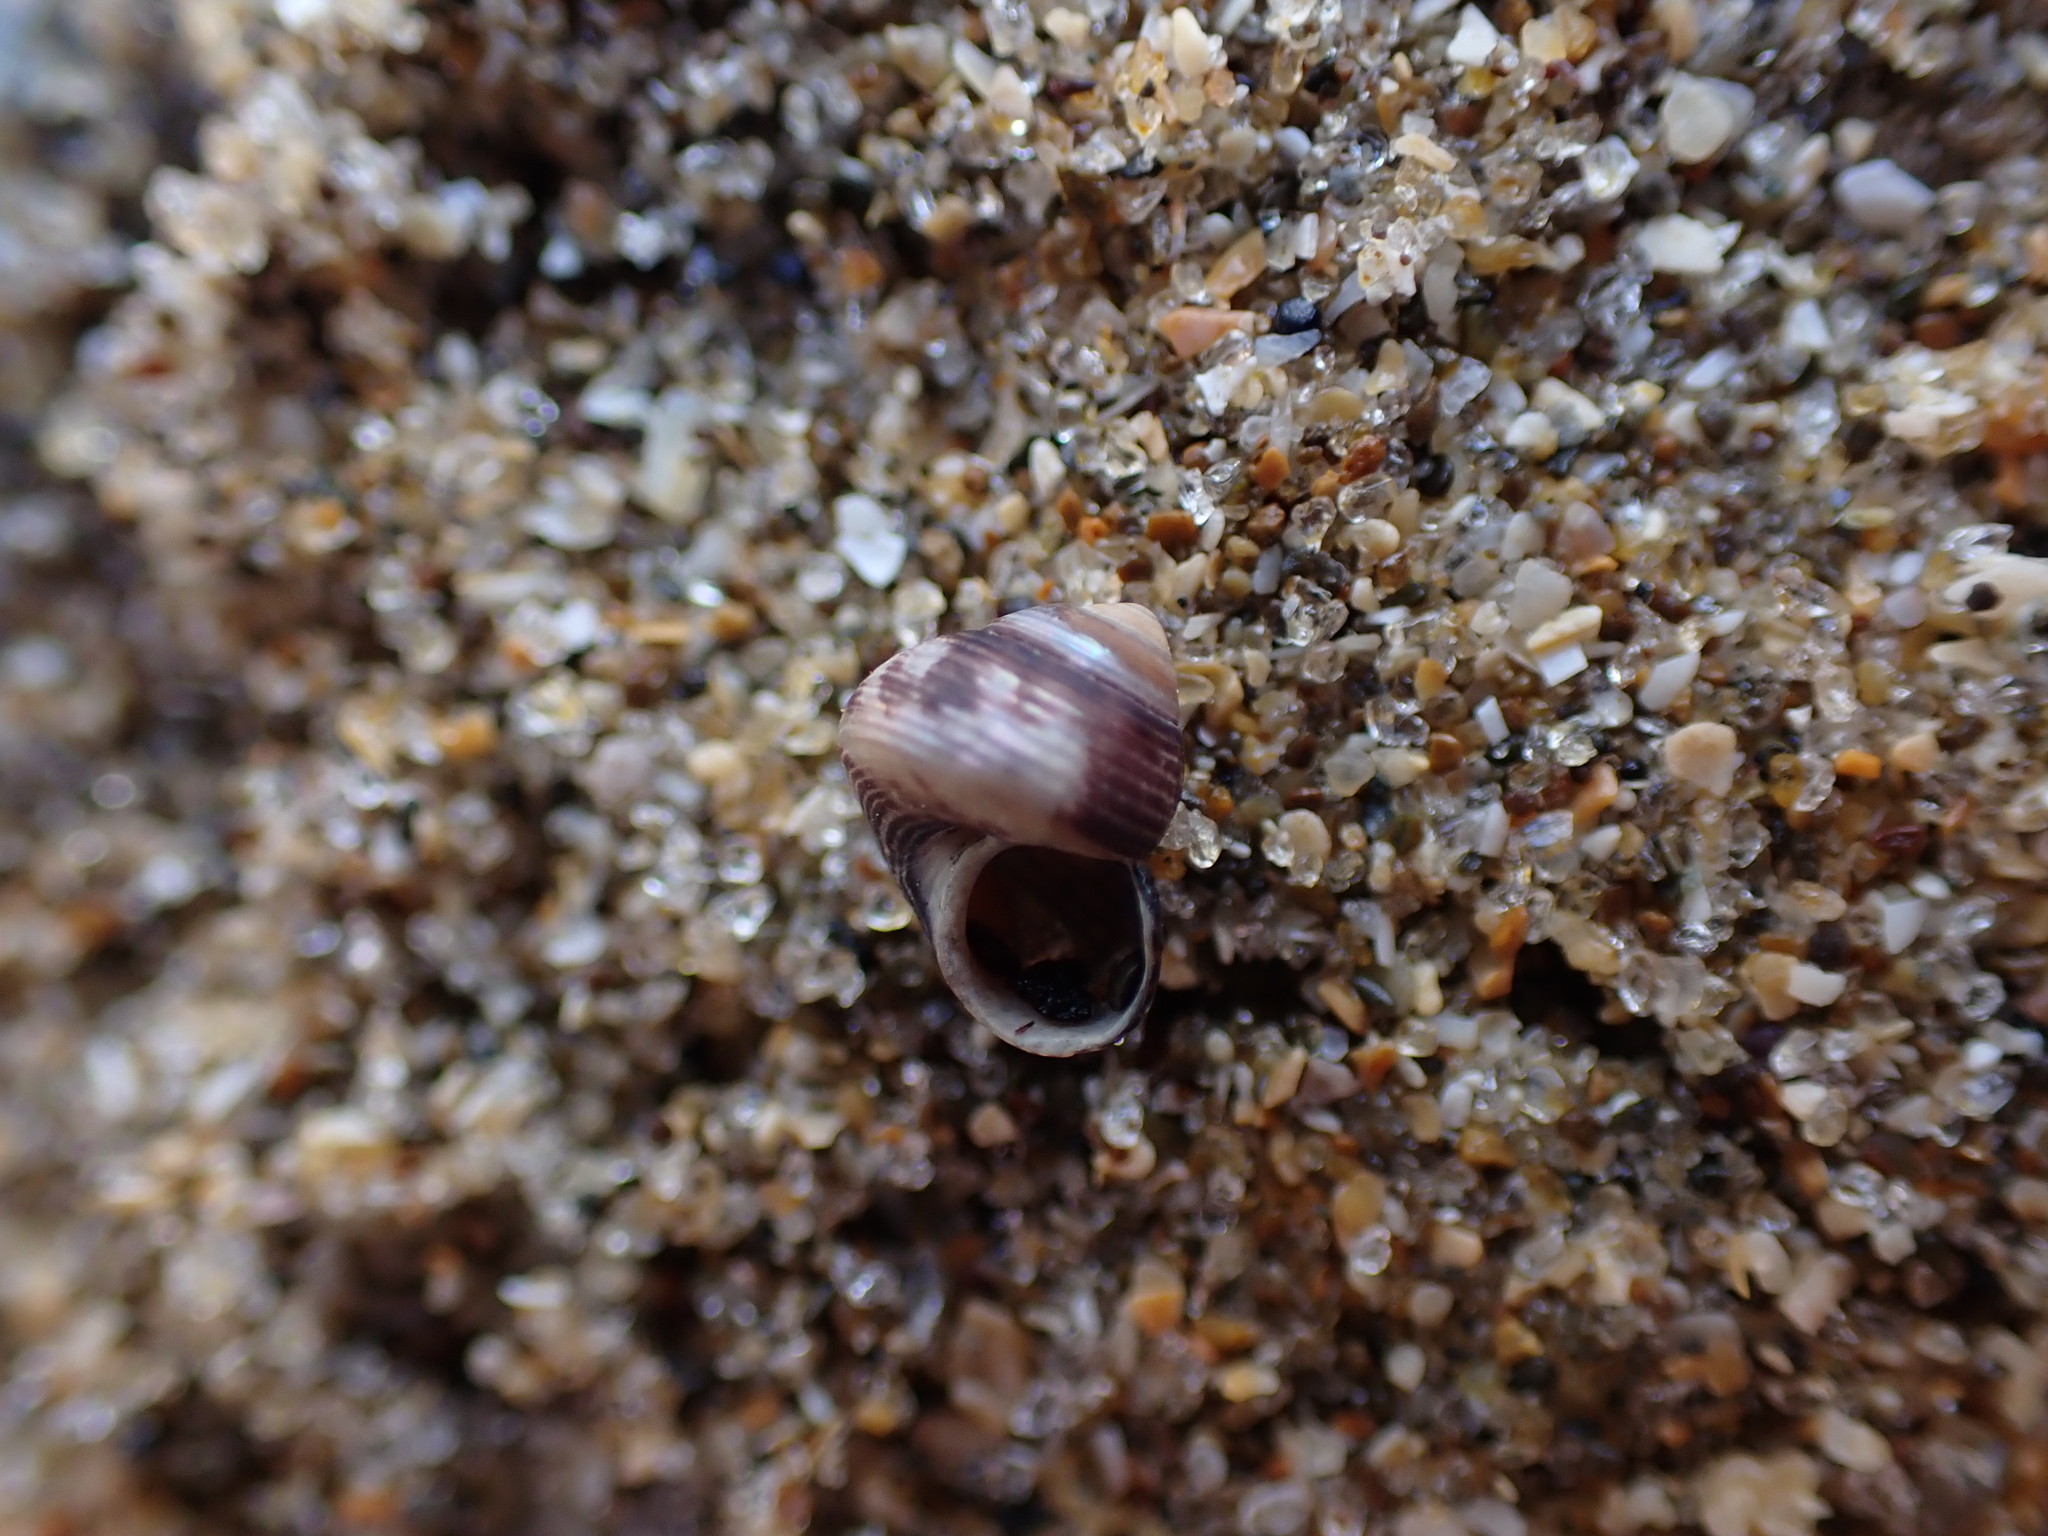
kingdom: Animalia
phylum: Mollusca
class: Gastropoda
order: Trochida
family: Trochidae
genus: Micrelenchus
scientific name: Micrelenchus huttonii
